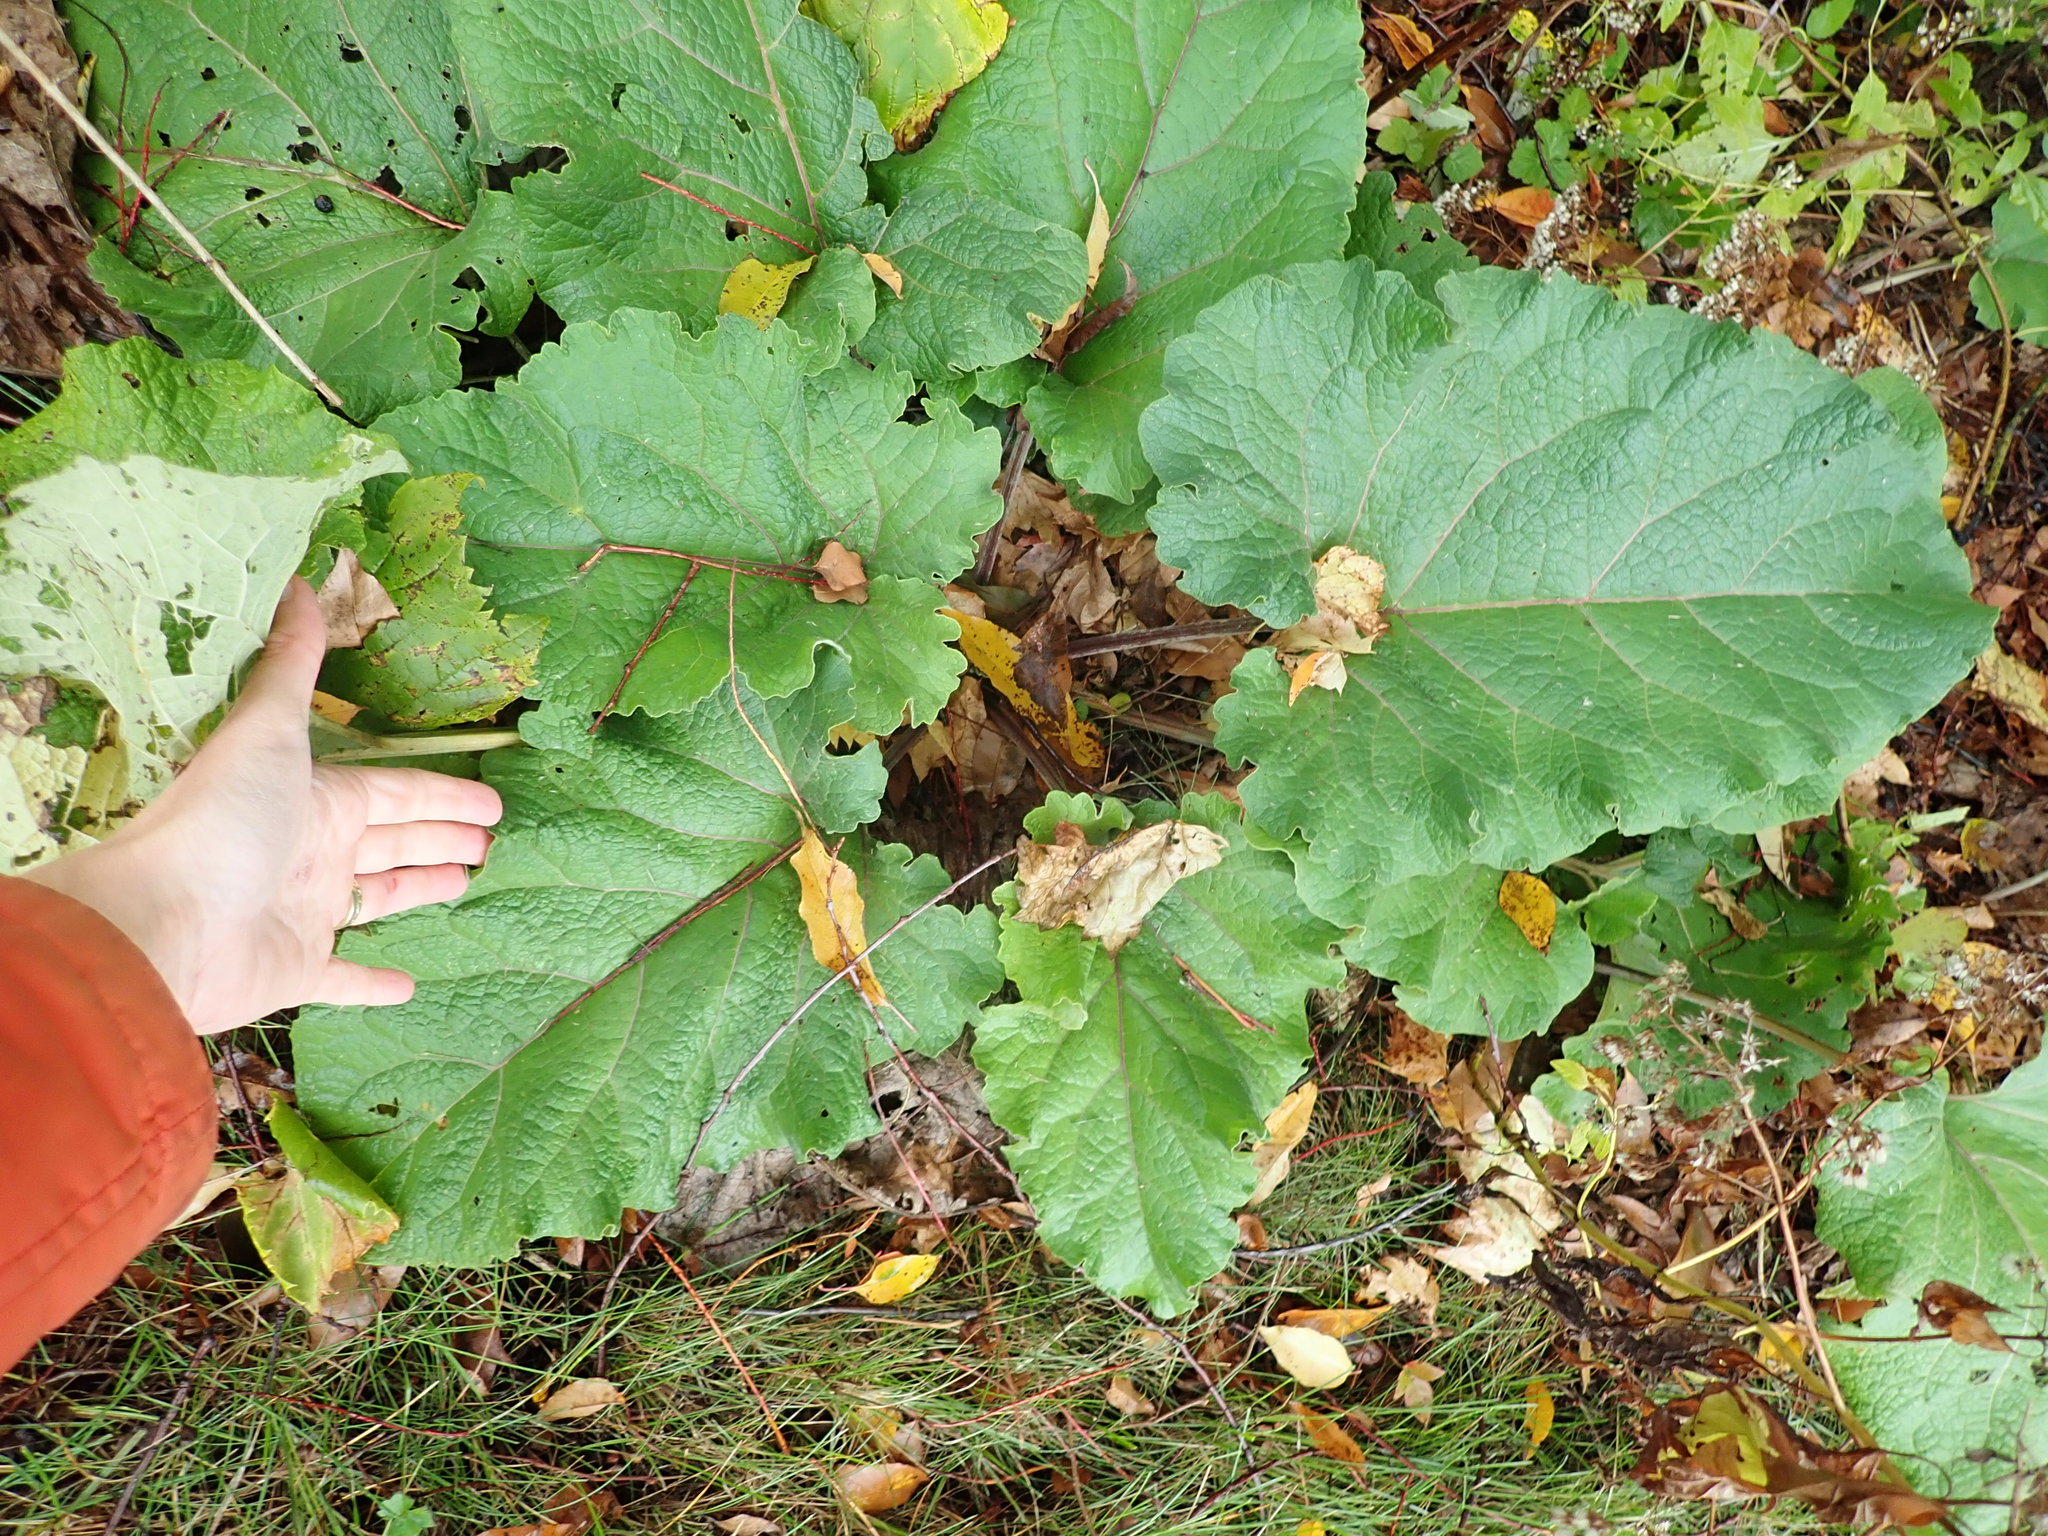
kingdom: Plantae
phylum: Tracheophyta
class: Magnoliopsida
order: Asterales
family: Asteraceae
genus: Arctium
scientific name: Arctium
